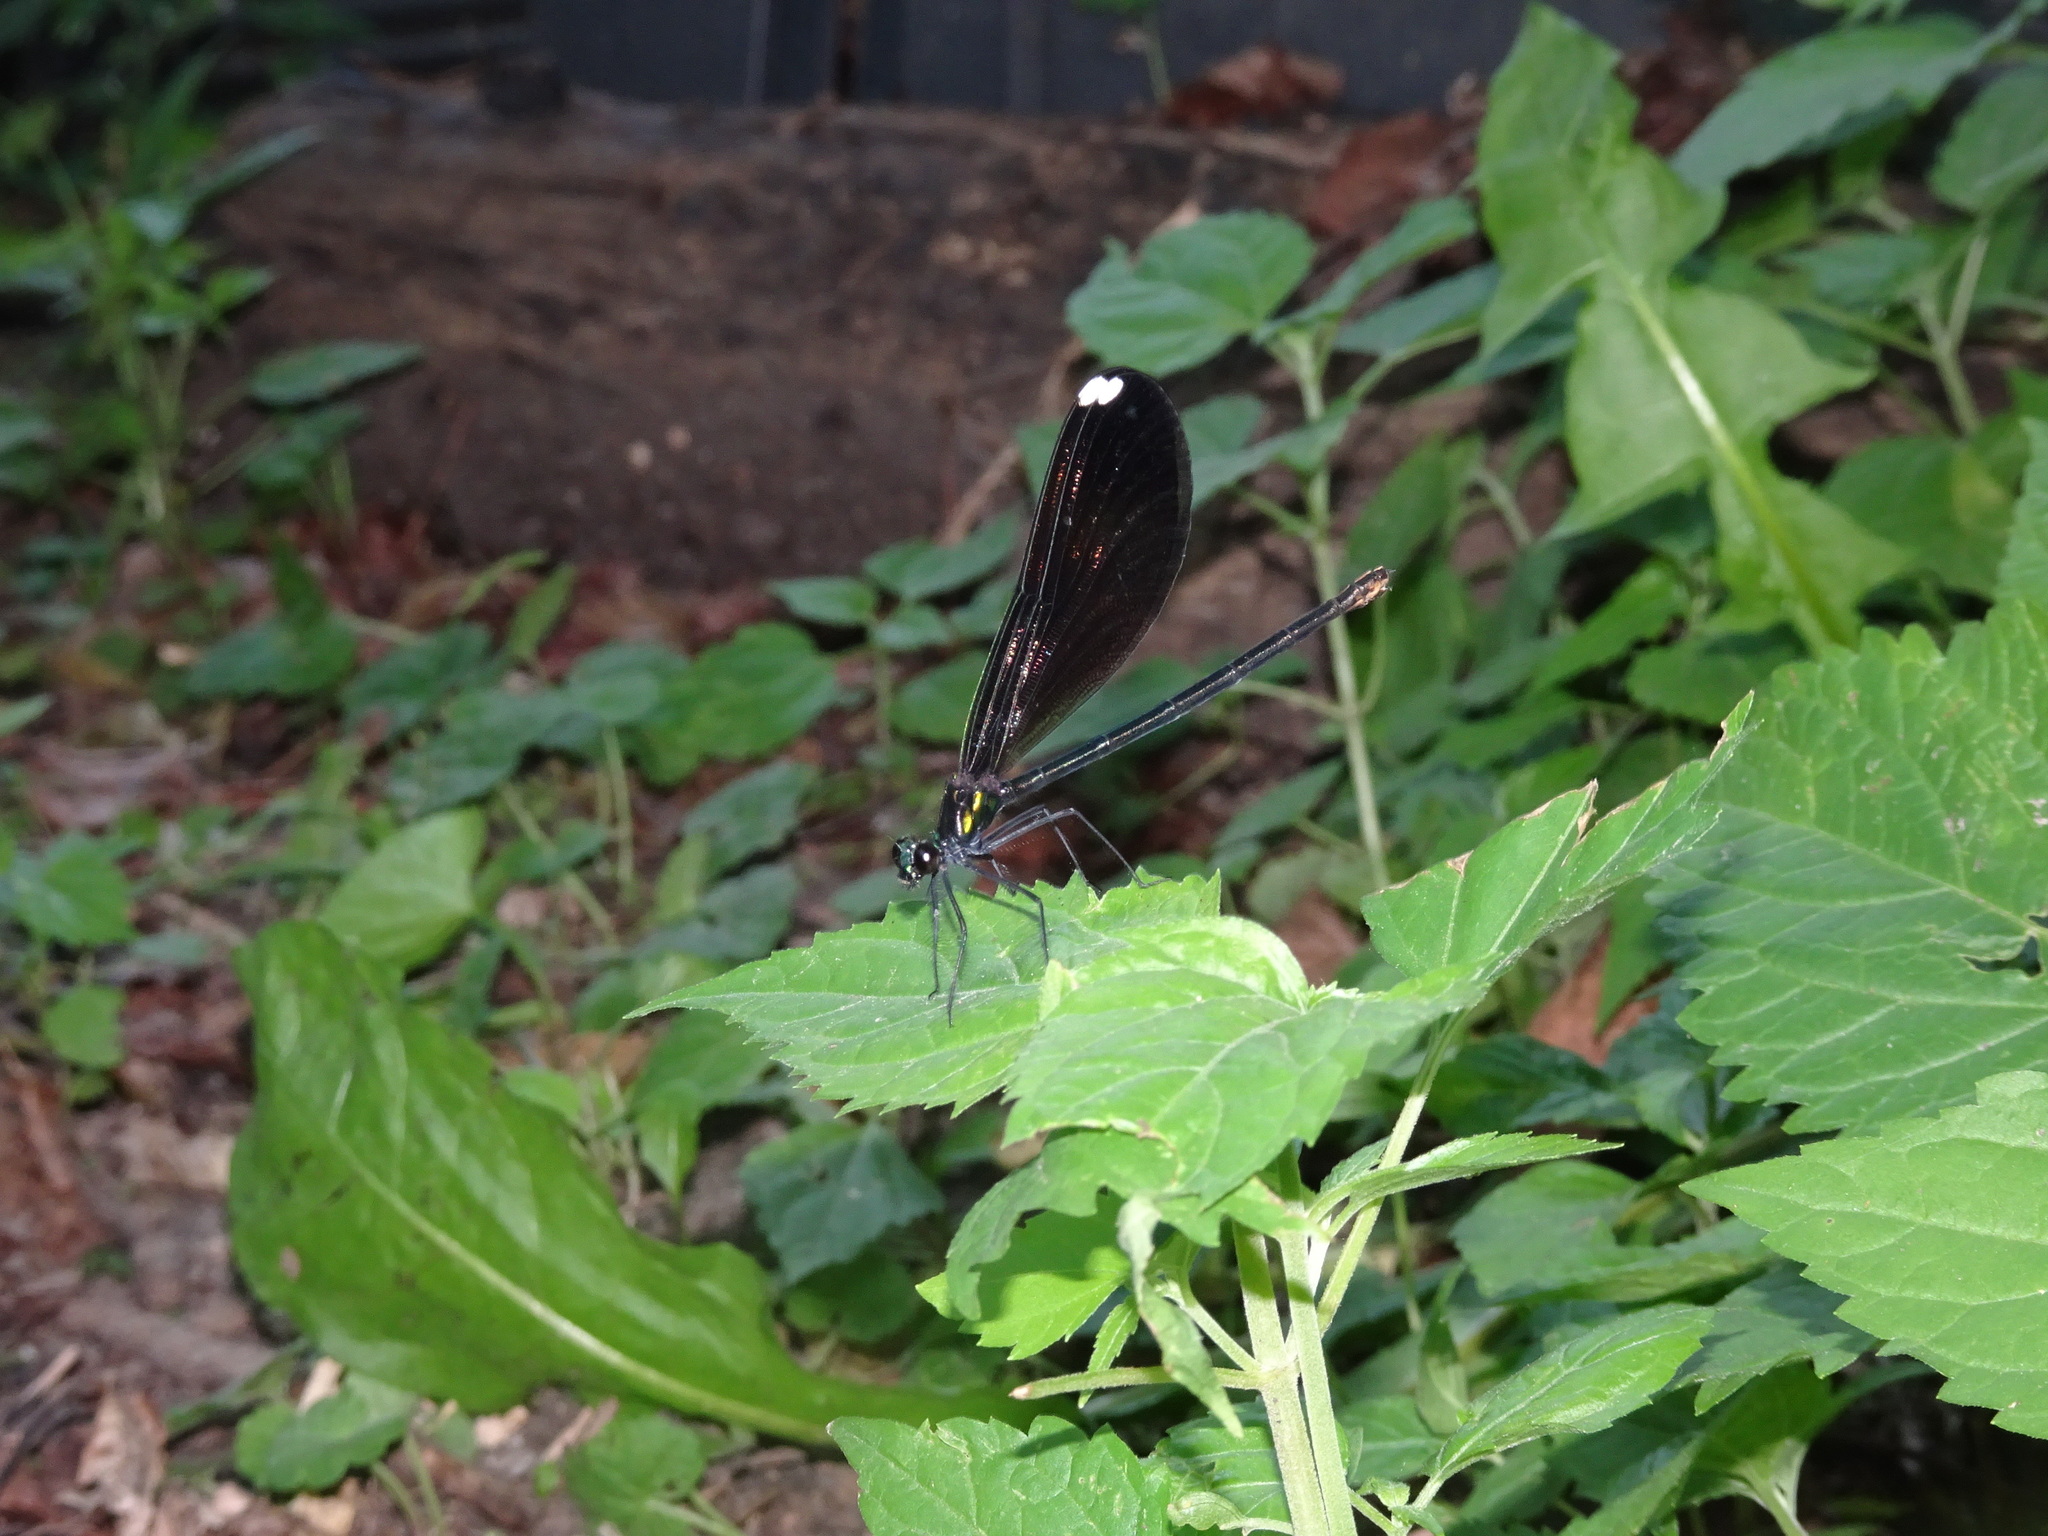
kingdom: Animalia
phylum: Arthropoda
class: Insecta
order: Odonata
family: Calopterygidae
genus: Calopteryx
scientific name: Calopteryx maculata
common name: Ebony jewelwing
